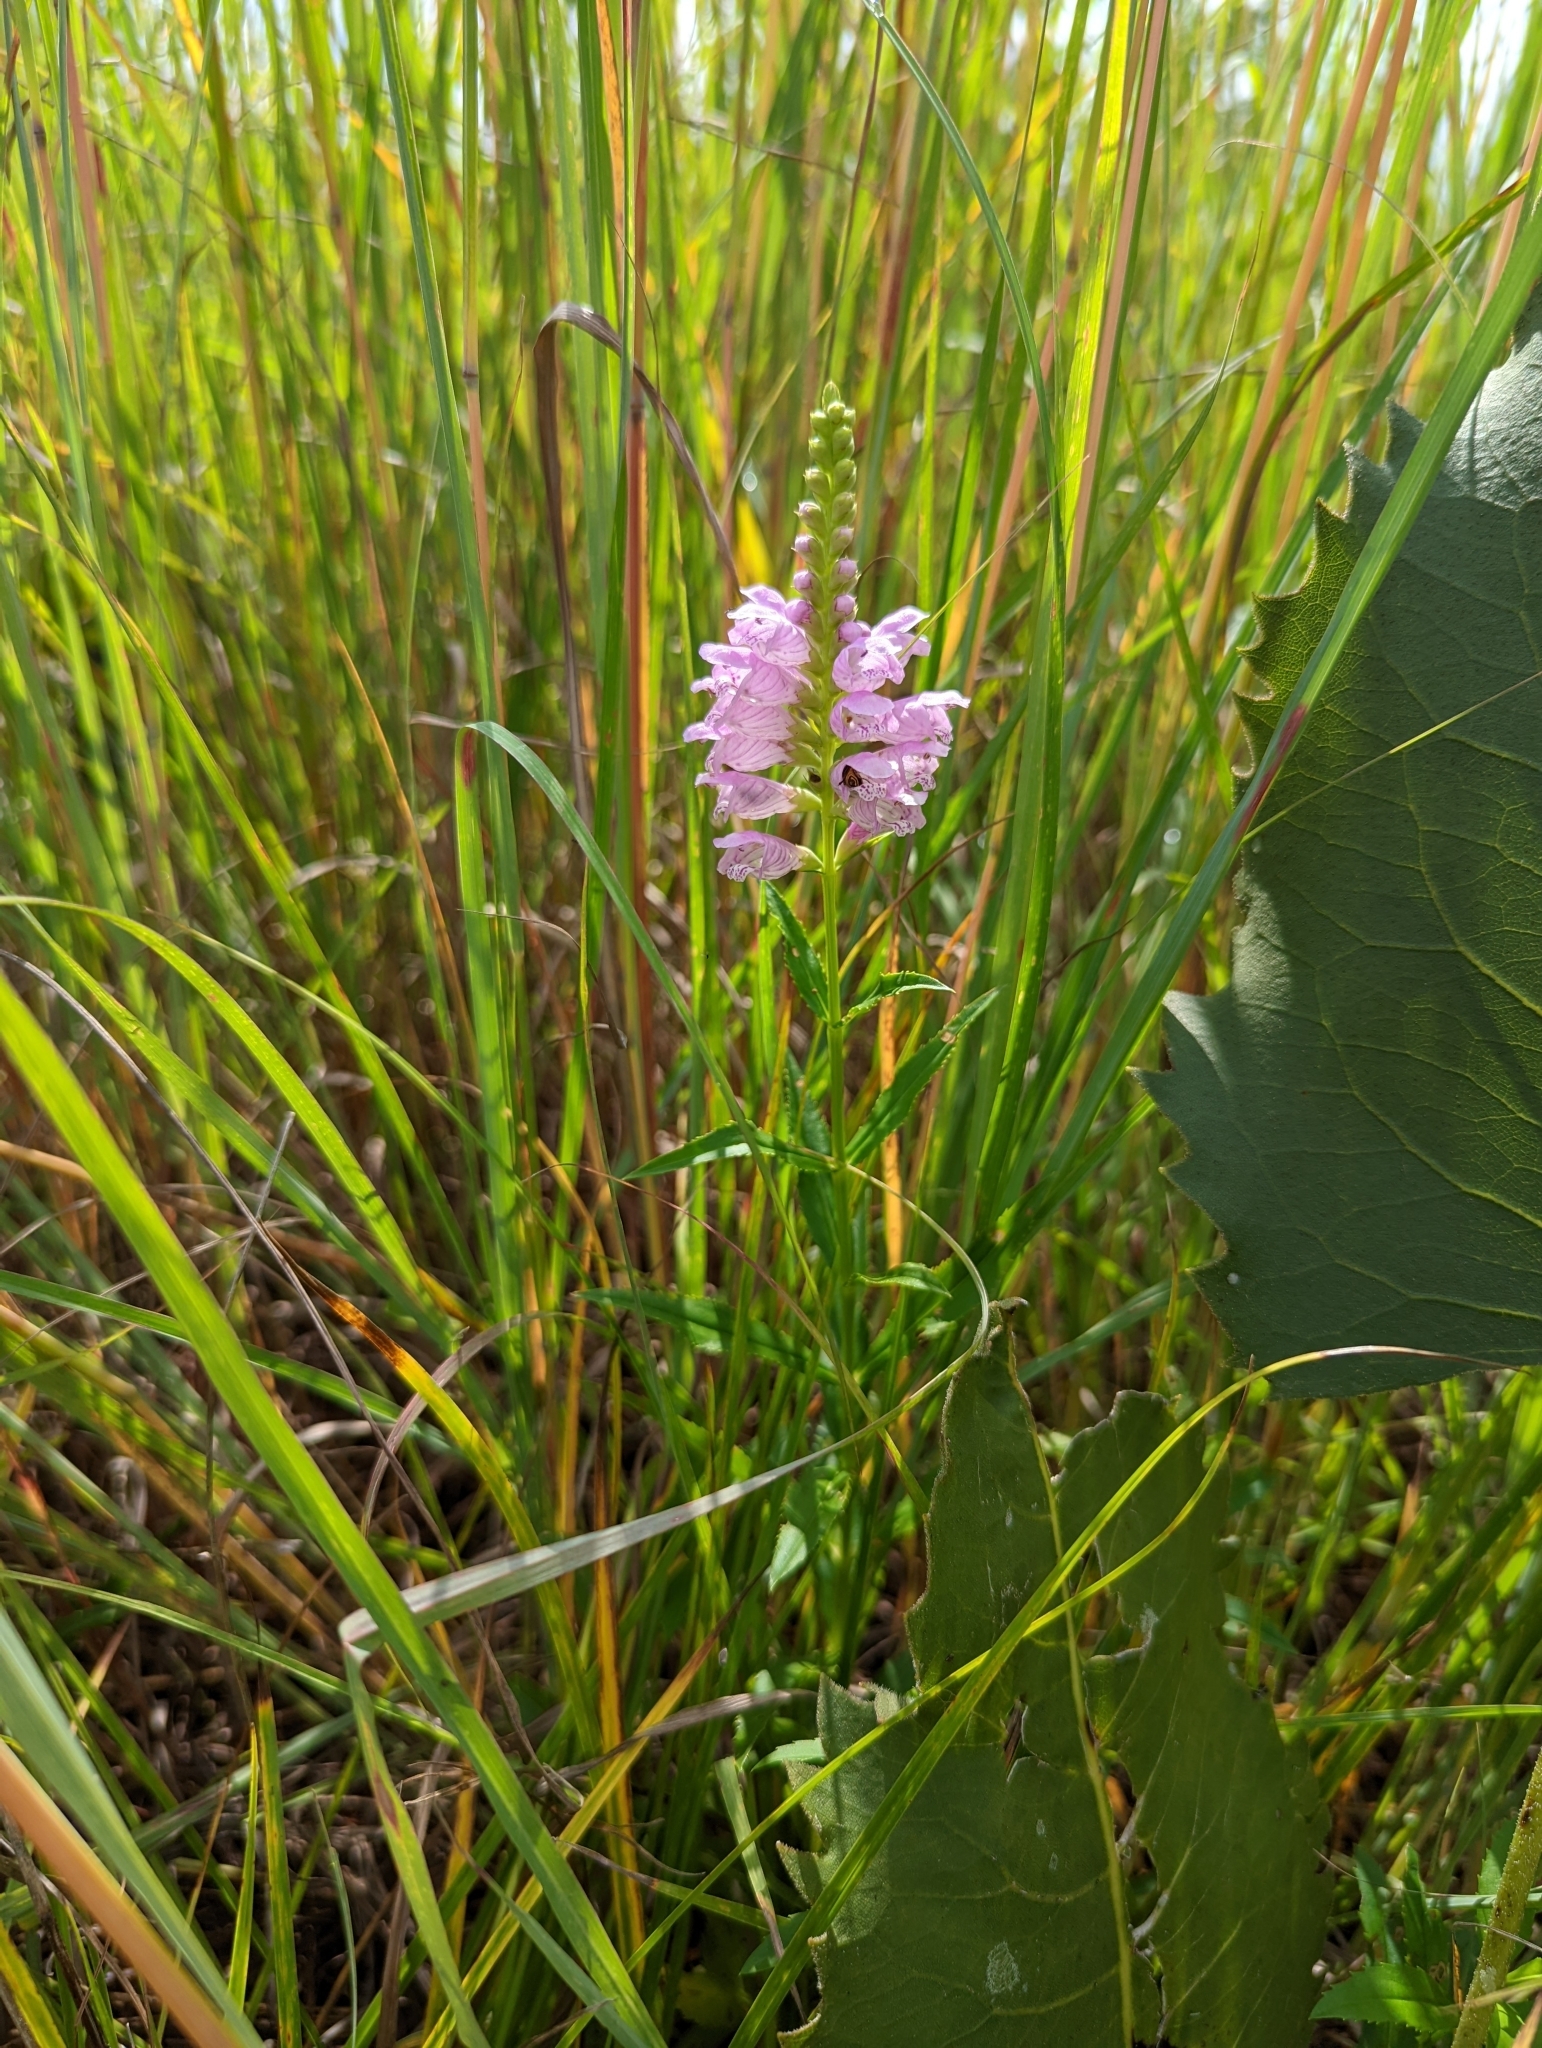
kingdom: Plantae
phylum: Tracheophyta
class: Magnoliopsida
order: Lamiales
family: Lamiaceae
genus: Physostegia
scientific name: Physostegia virginiana
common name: Obedient-plant
